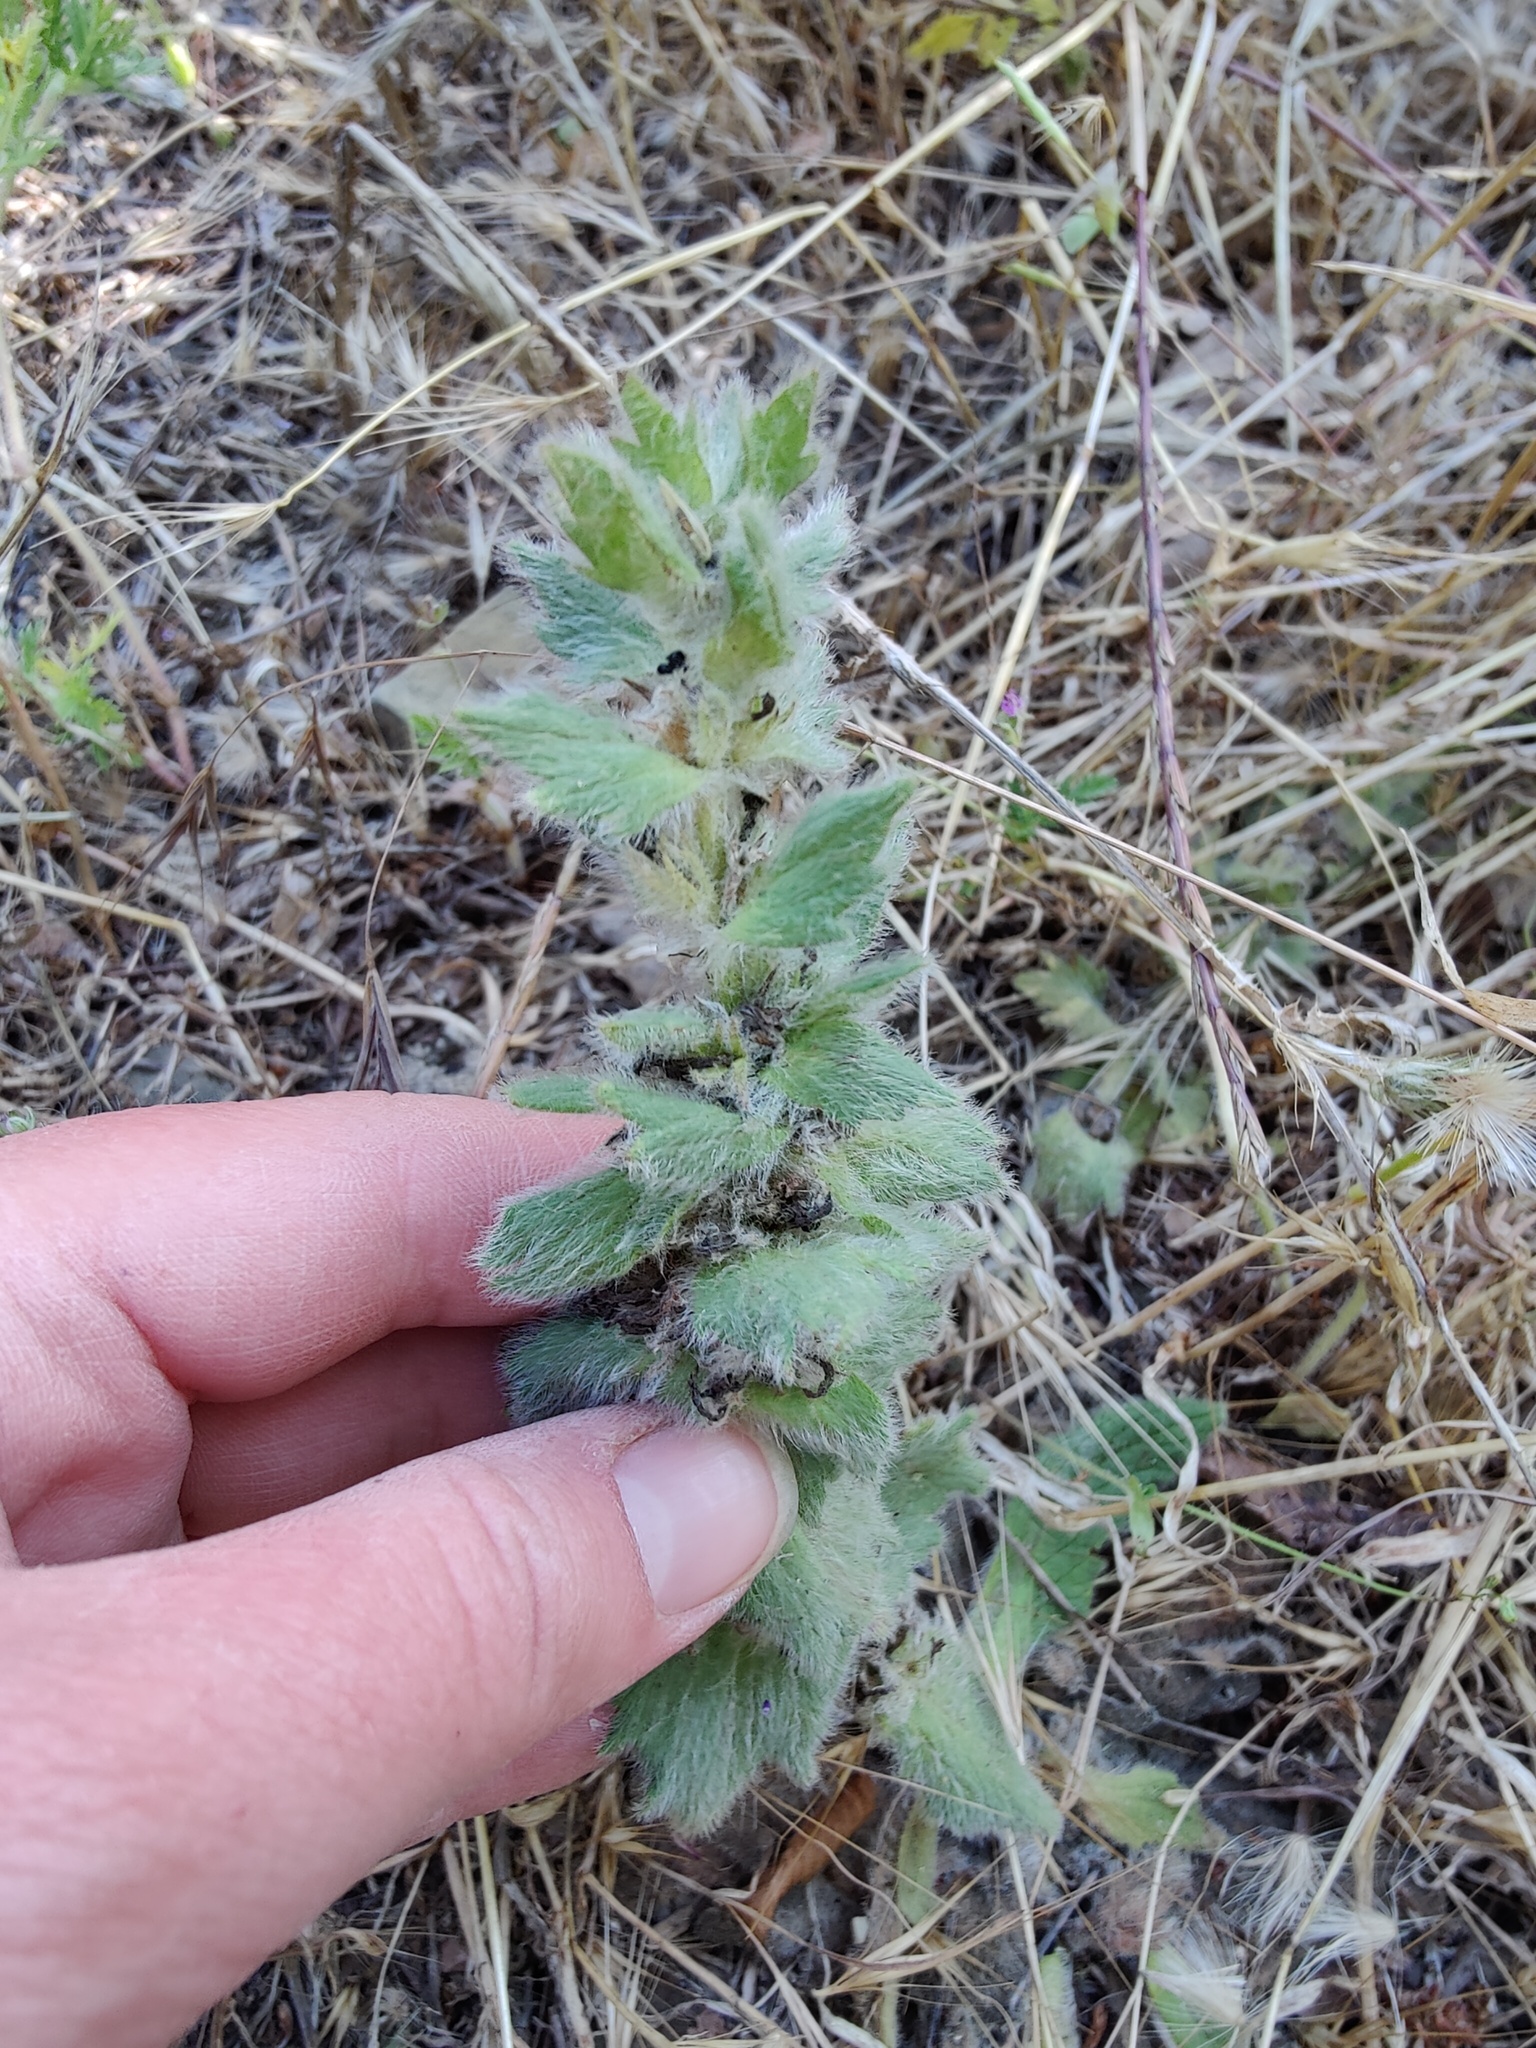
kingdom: Plantae
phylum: Tracheophyta
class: Magnoliopsida
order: Lamiales
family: Lamiaceae
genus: Ajuga
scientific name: Ajuga orientalis
